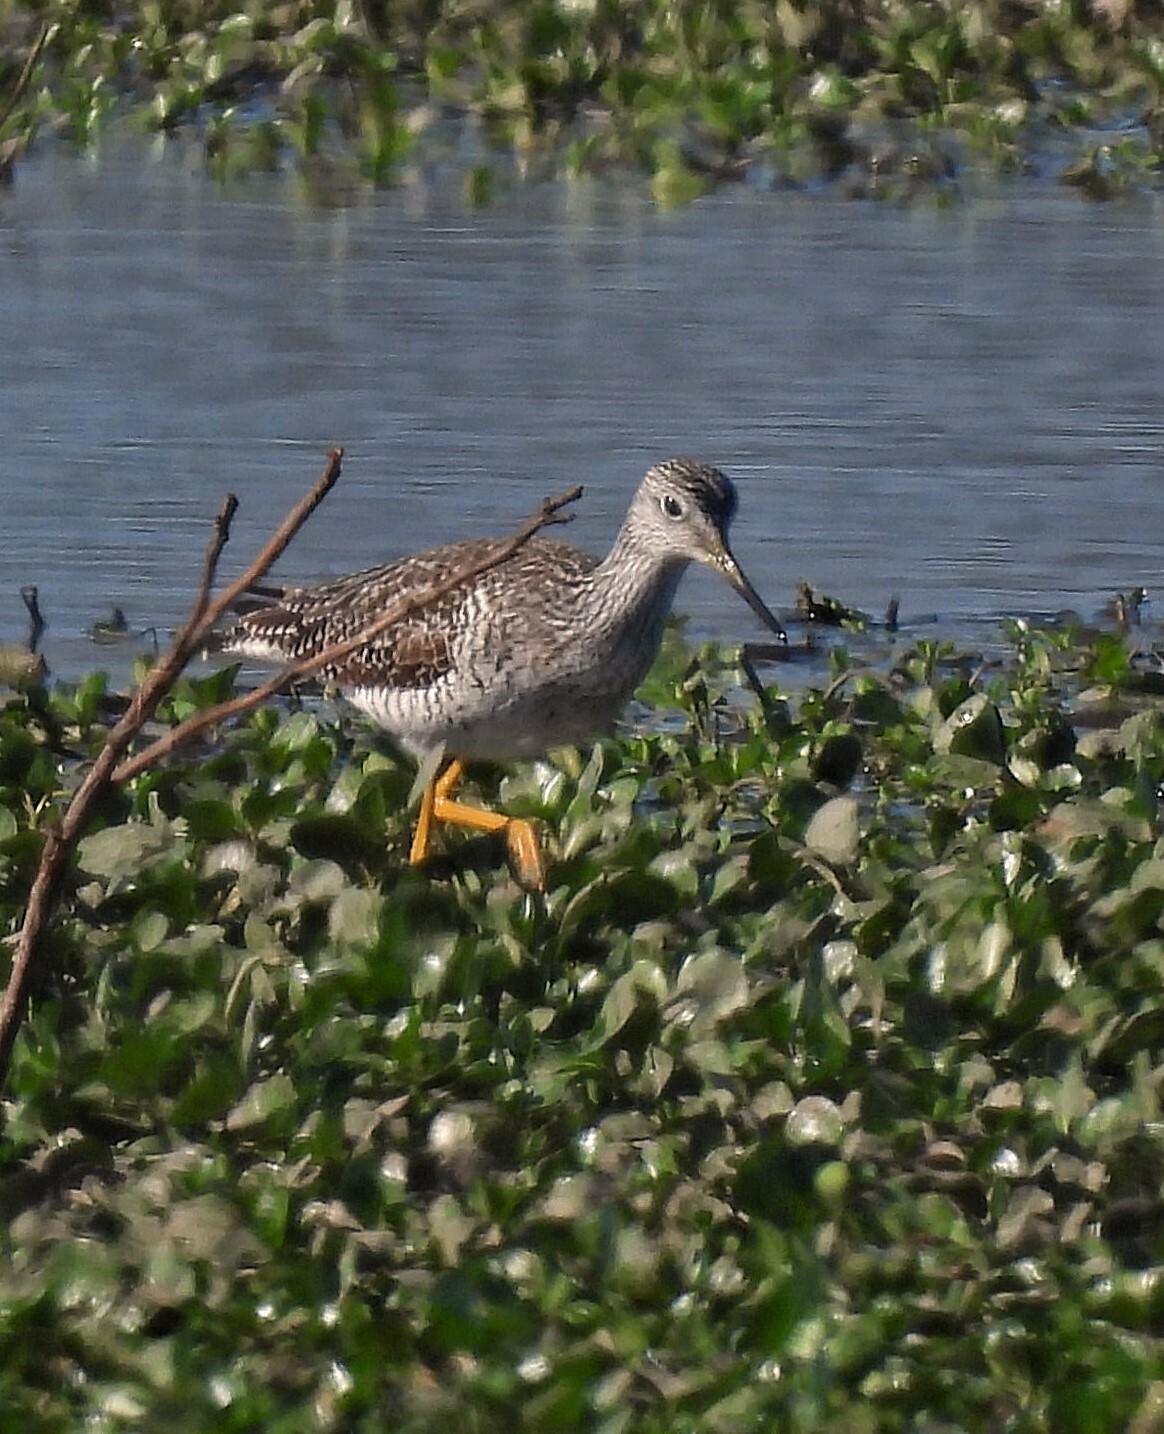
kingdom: Animalia
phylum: Chordata
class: Aves
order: Charadriiformes
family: Scolopacidae
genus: Tringa
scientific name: Tringa melanoleuca
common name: Greater yellowlegs
